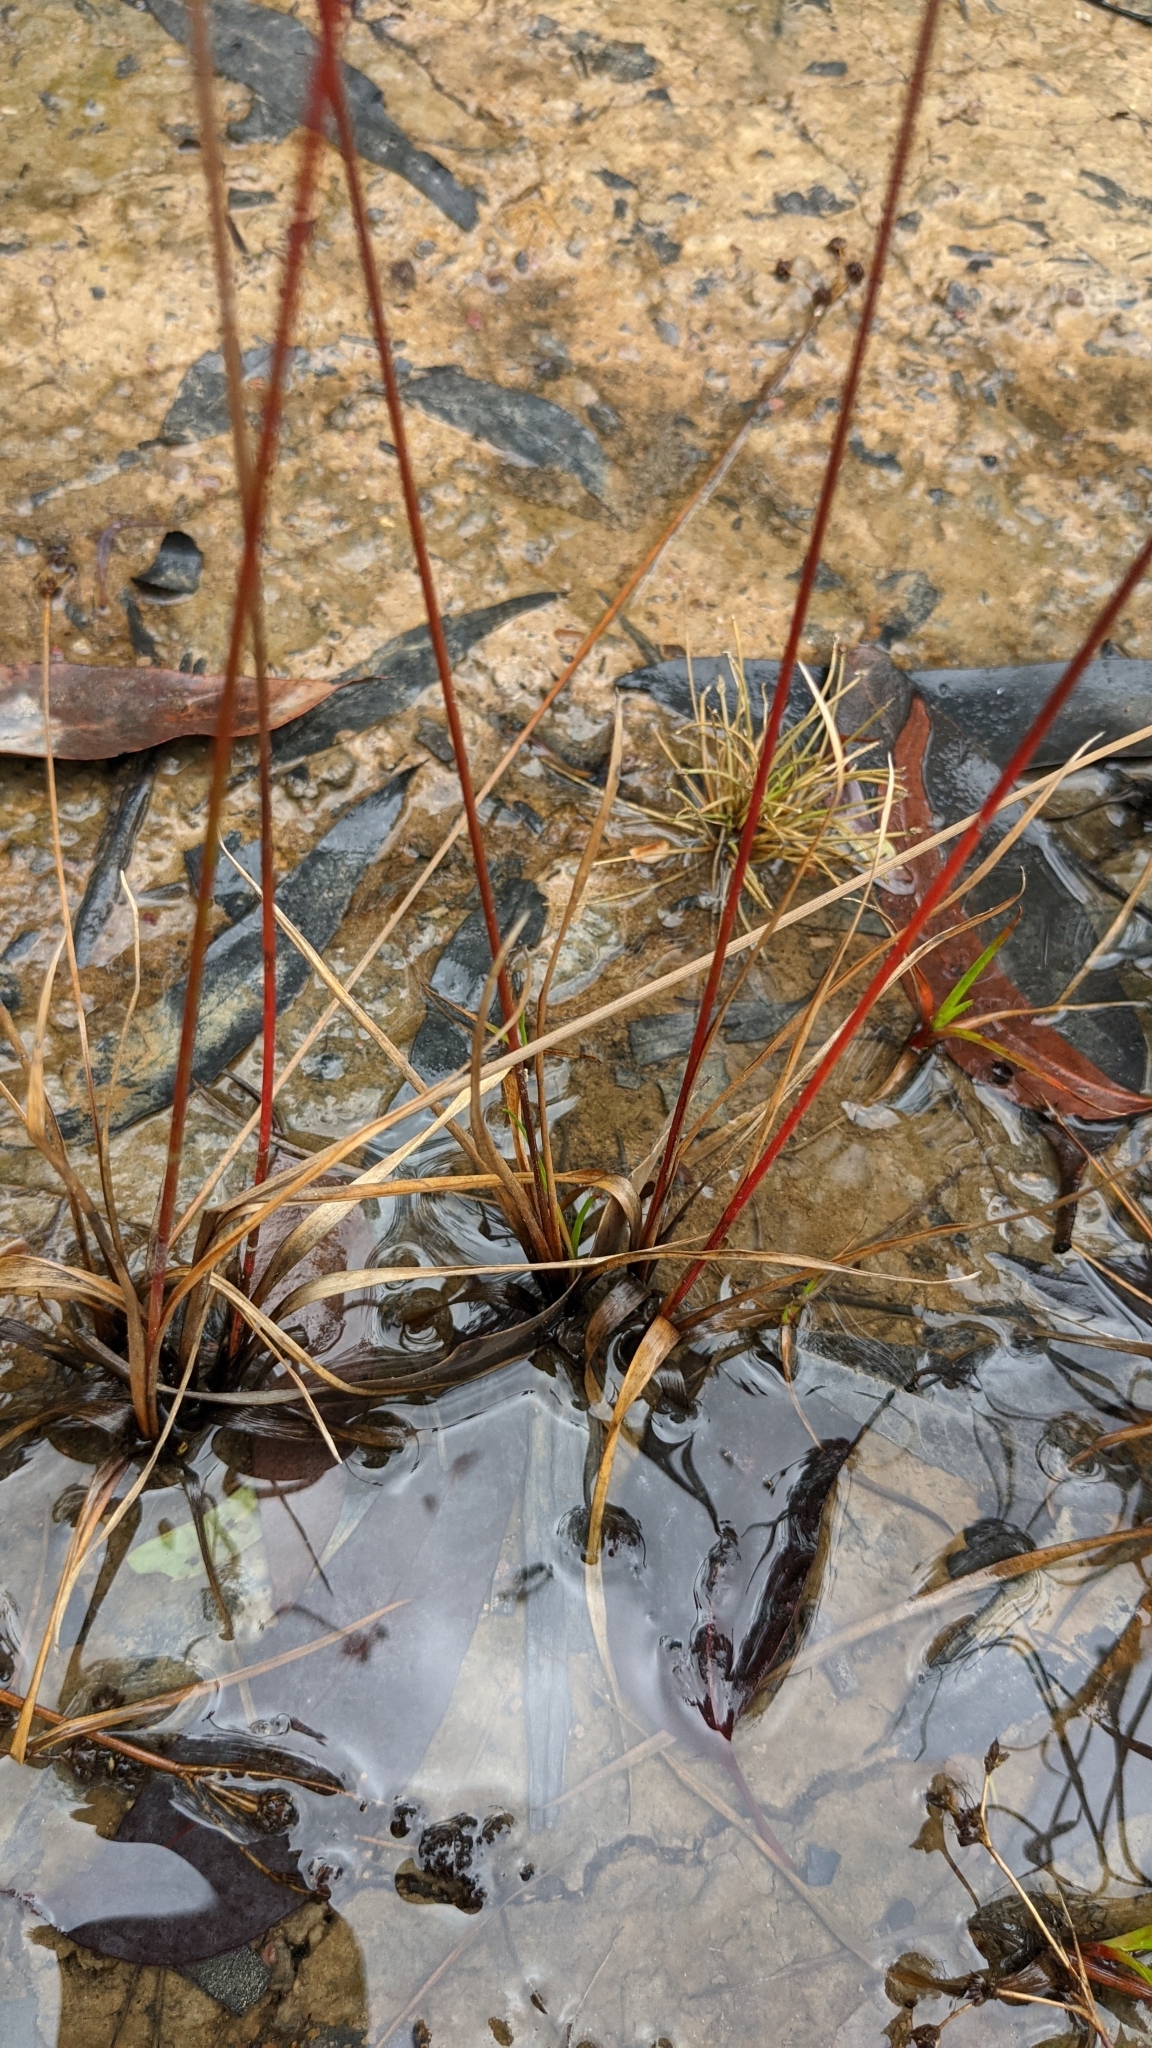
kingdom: Plantae
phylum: Tracheophyta
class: Liliopsida
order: Poales
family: Juncaceae
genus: Juncus
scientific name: Juncus planifolius
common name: Broadleaf rush
